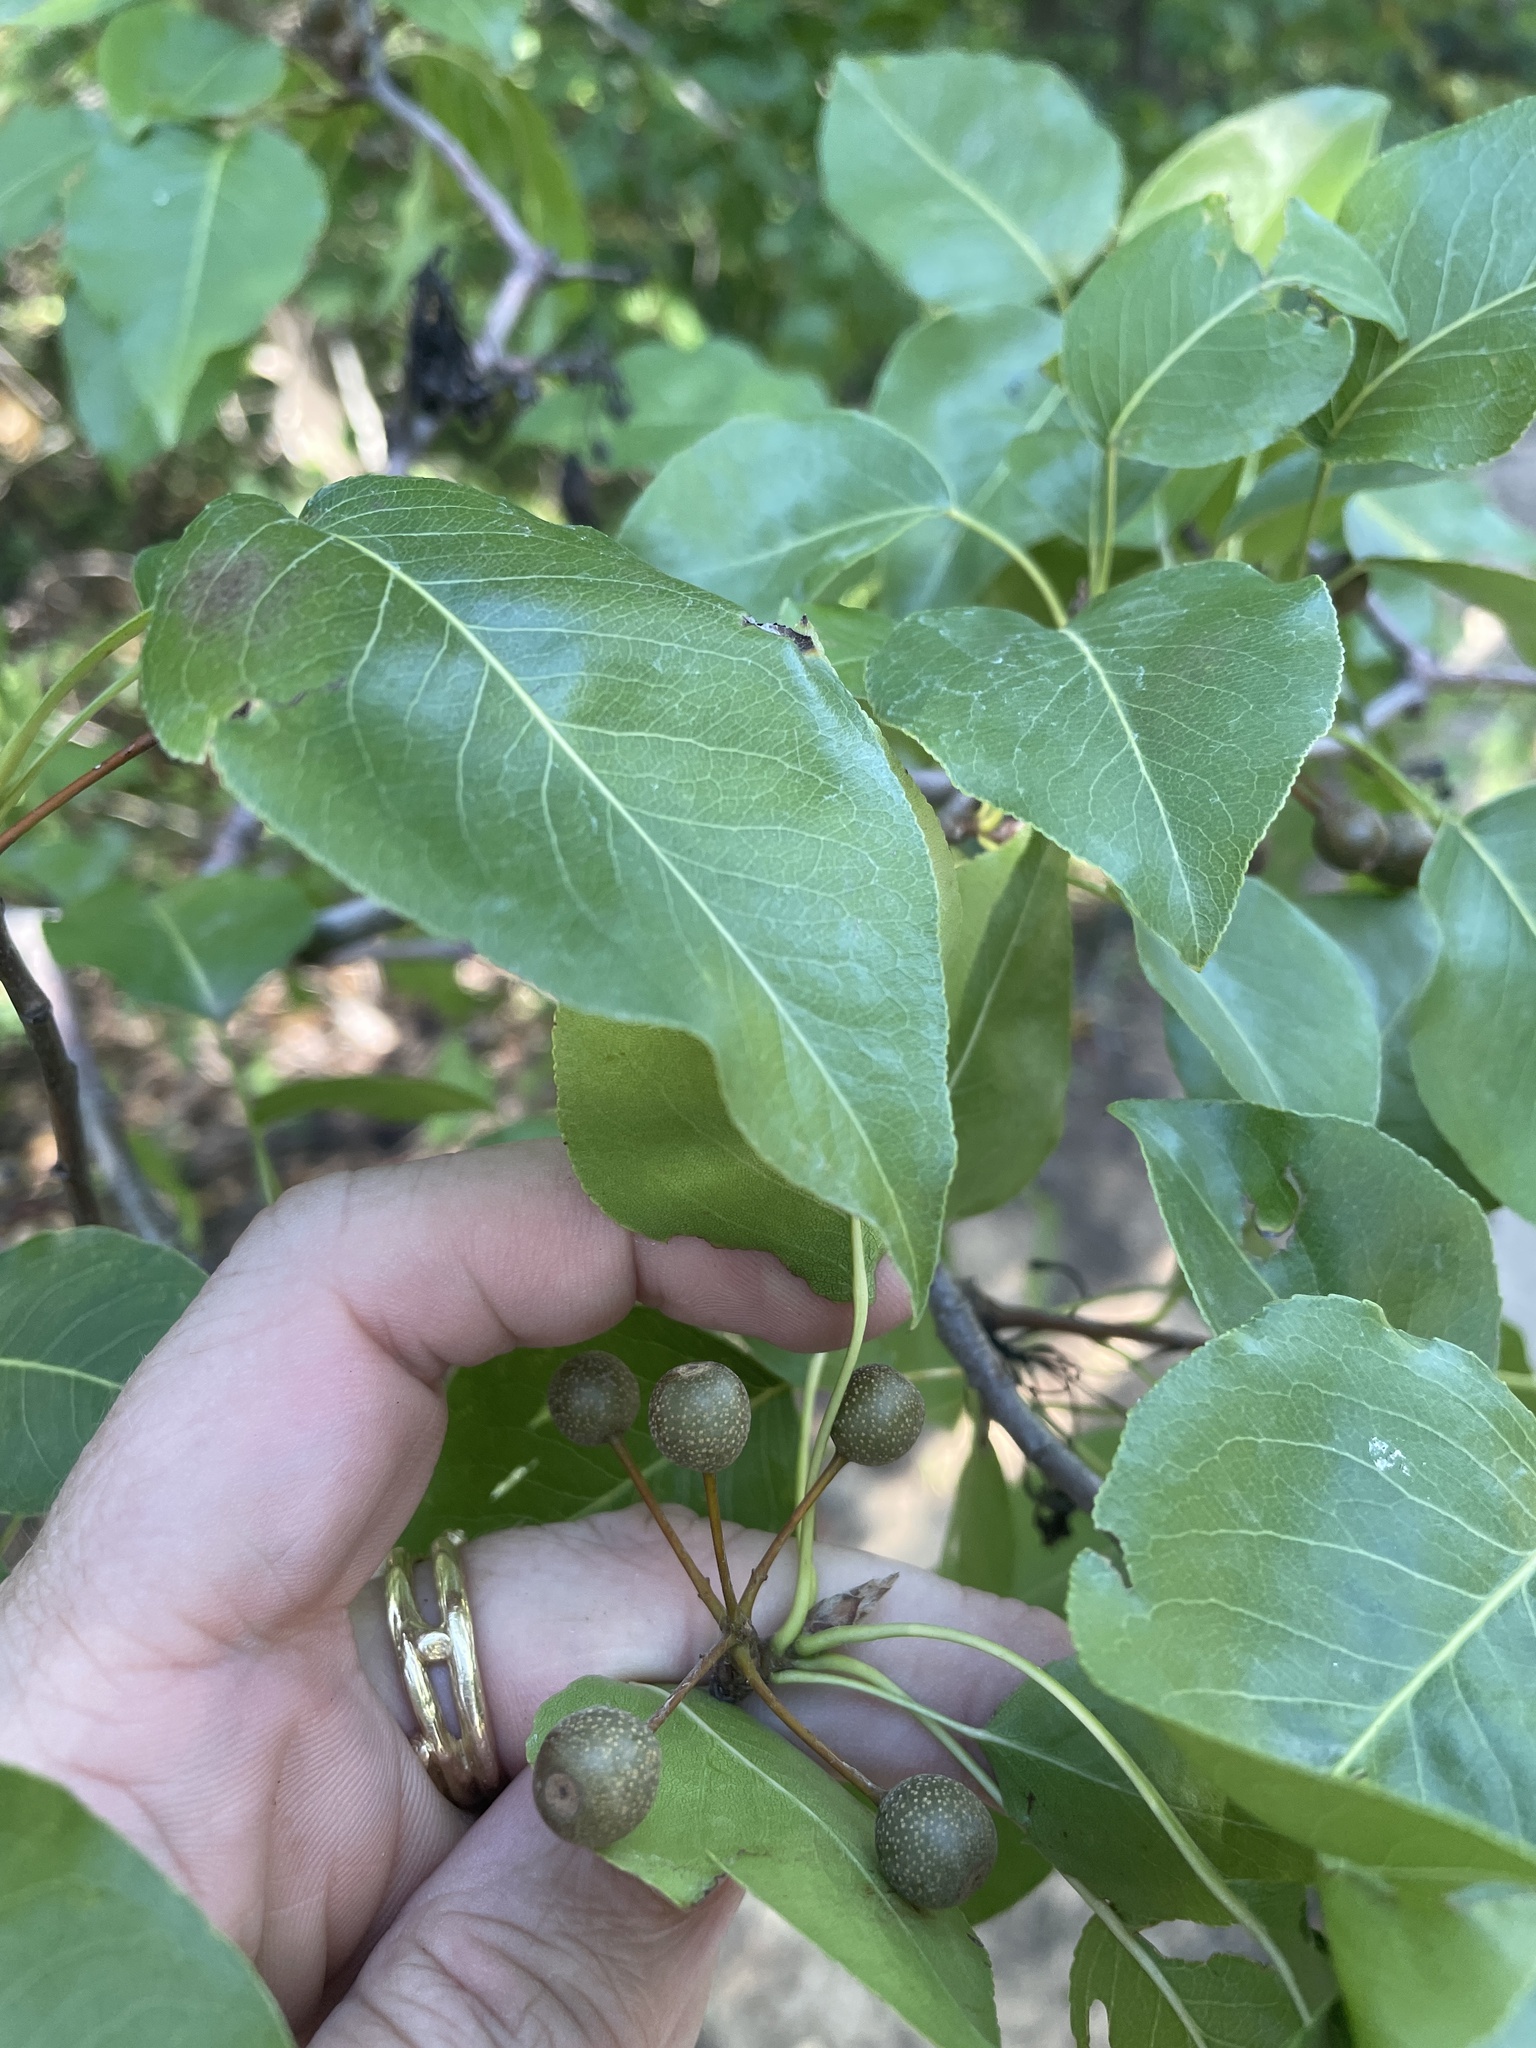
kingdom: Plantae
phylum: Tracheophyta
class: Magnoliopsida
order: Rosales
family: Rosaceae
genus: Pyrus
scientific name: Pyrus calleryana
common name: Callery pear
